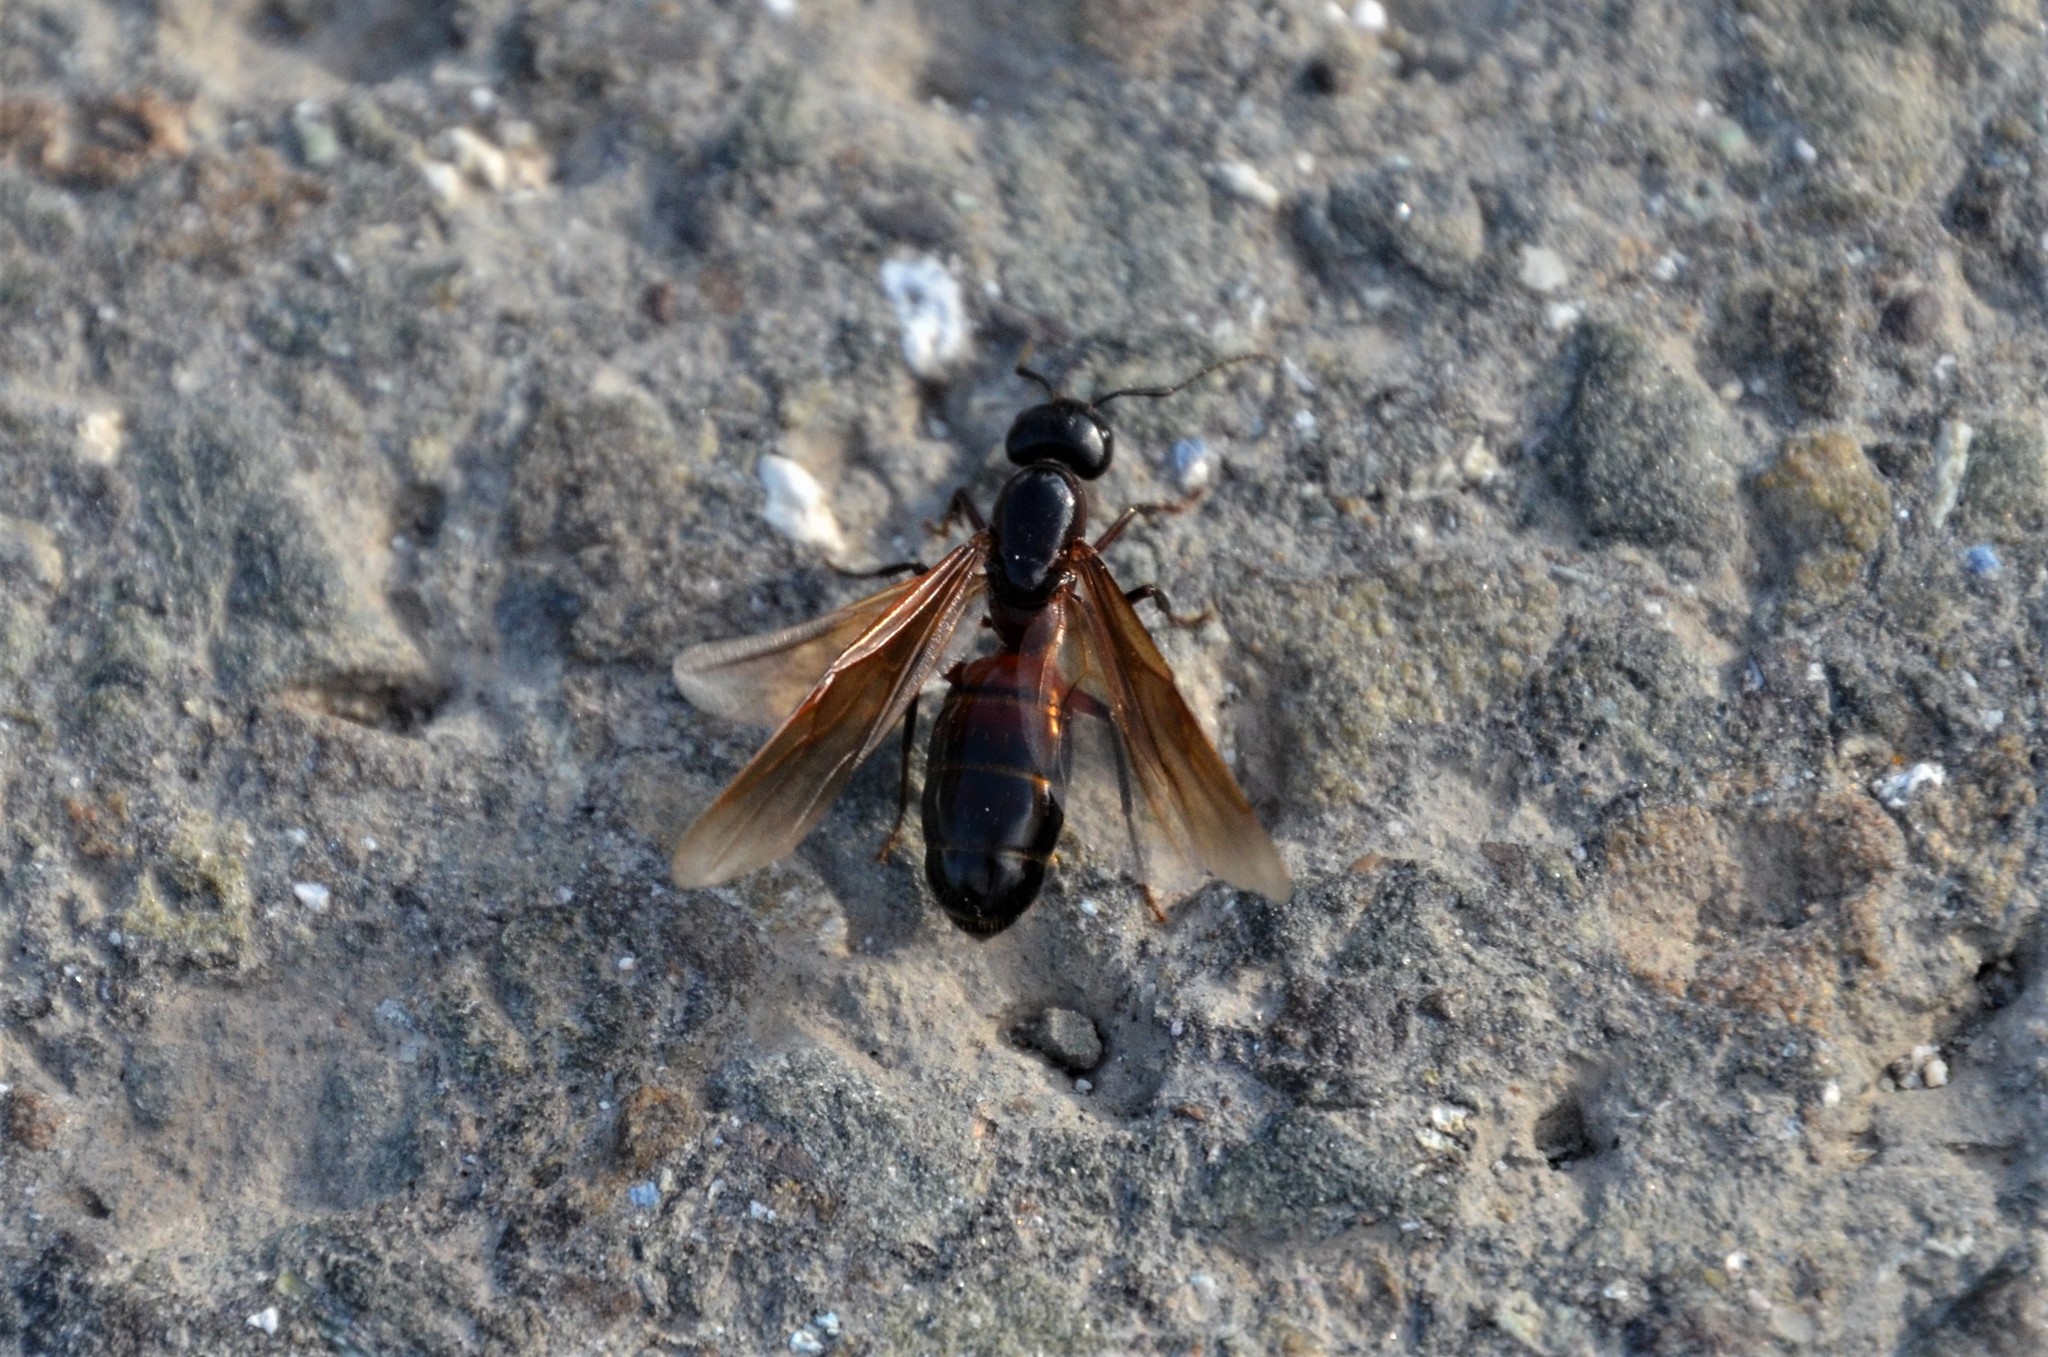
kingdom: Animalia
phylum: Arthropoda
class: Insecta
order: Hymenoptera
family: Formicidae
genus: Camponotus
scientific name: Camponotus ligniperdus
